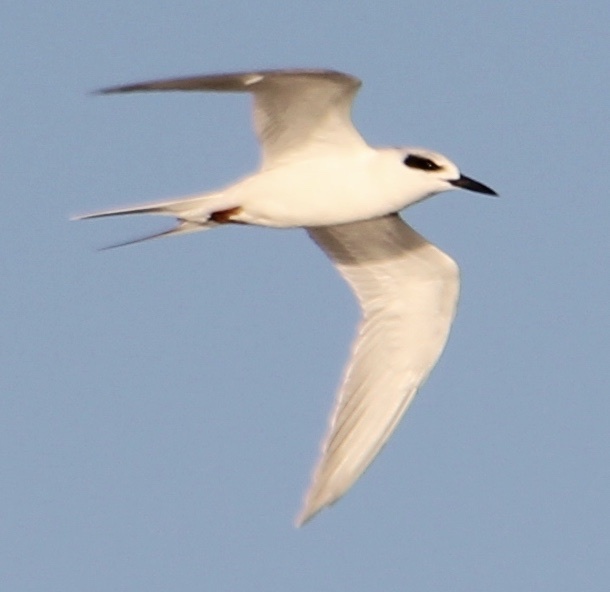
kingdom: Animalia
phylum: Chordata
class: Aves
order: Charadriiformes
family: Laridae
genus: Sterna
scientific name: Sterna forsteri
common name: Forster's tern
